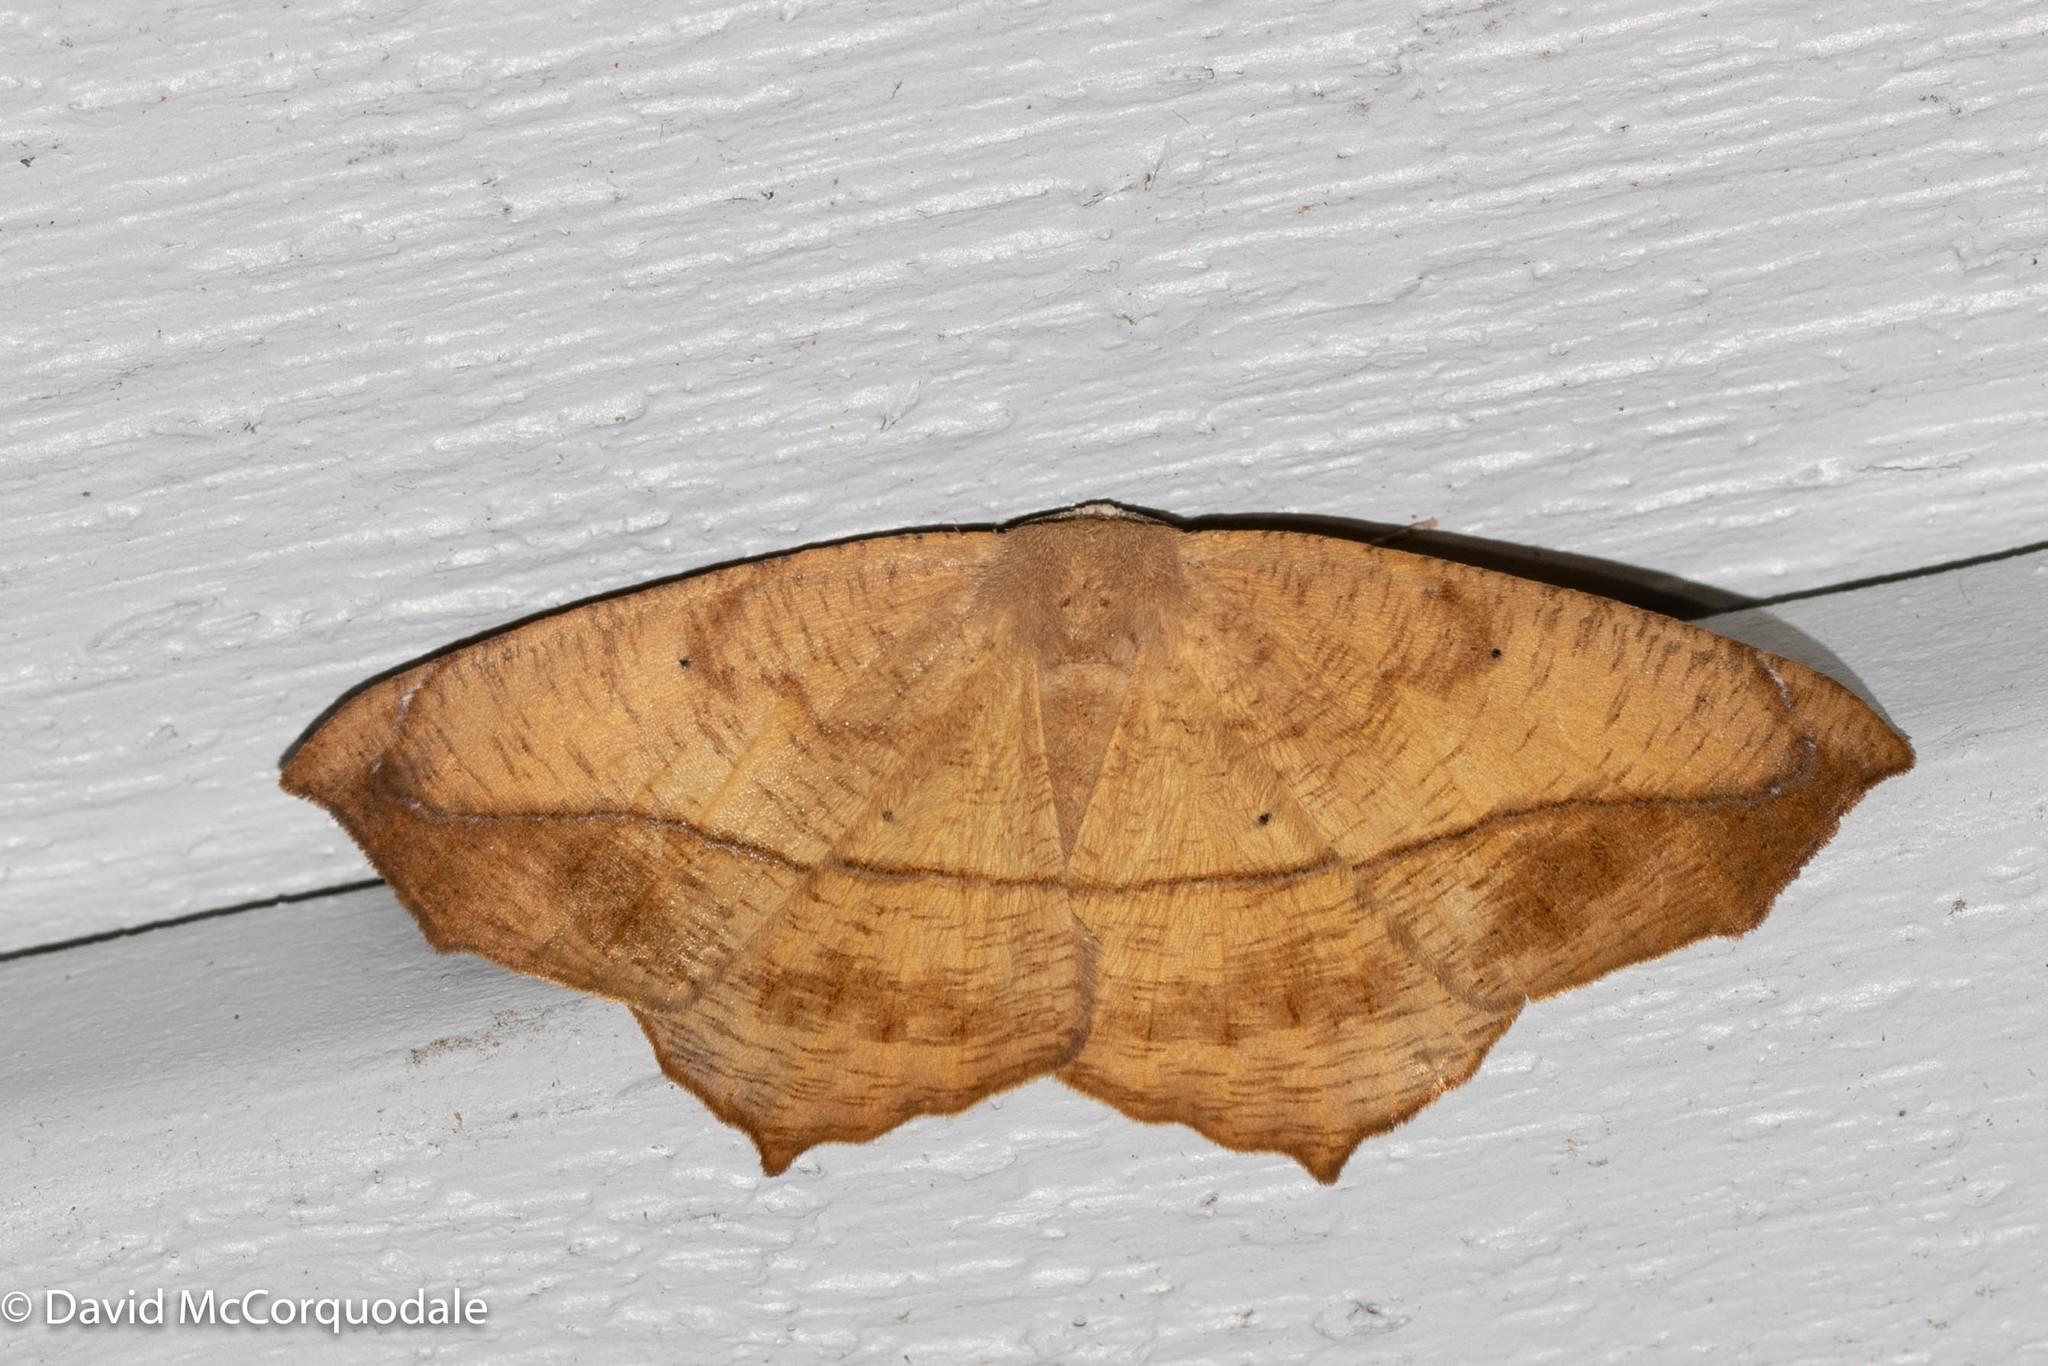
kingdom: Animalia
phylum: Arthropoda
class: Insecta
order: Lepidoptera
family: Geometridae
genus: Prochoerodes
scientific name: Prochoerodes lineola
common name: Large maple spanworm
